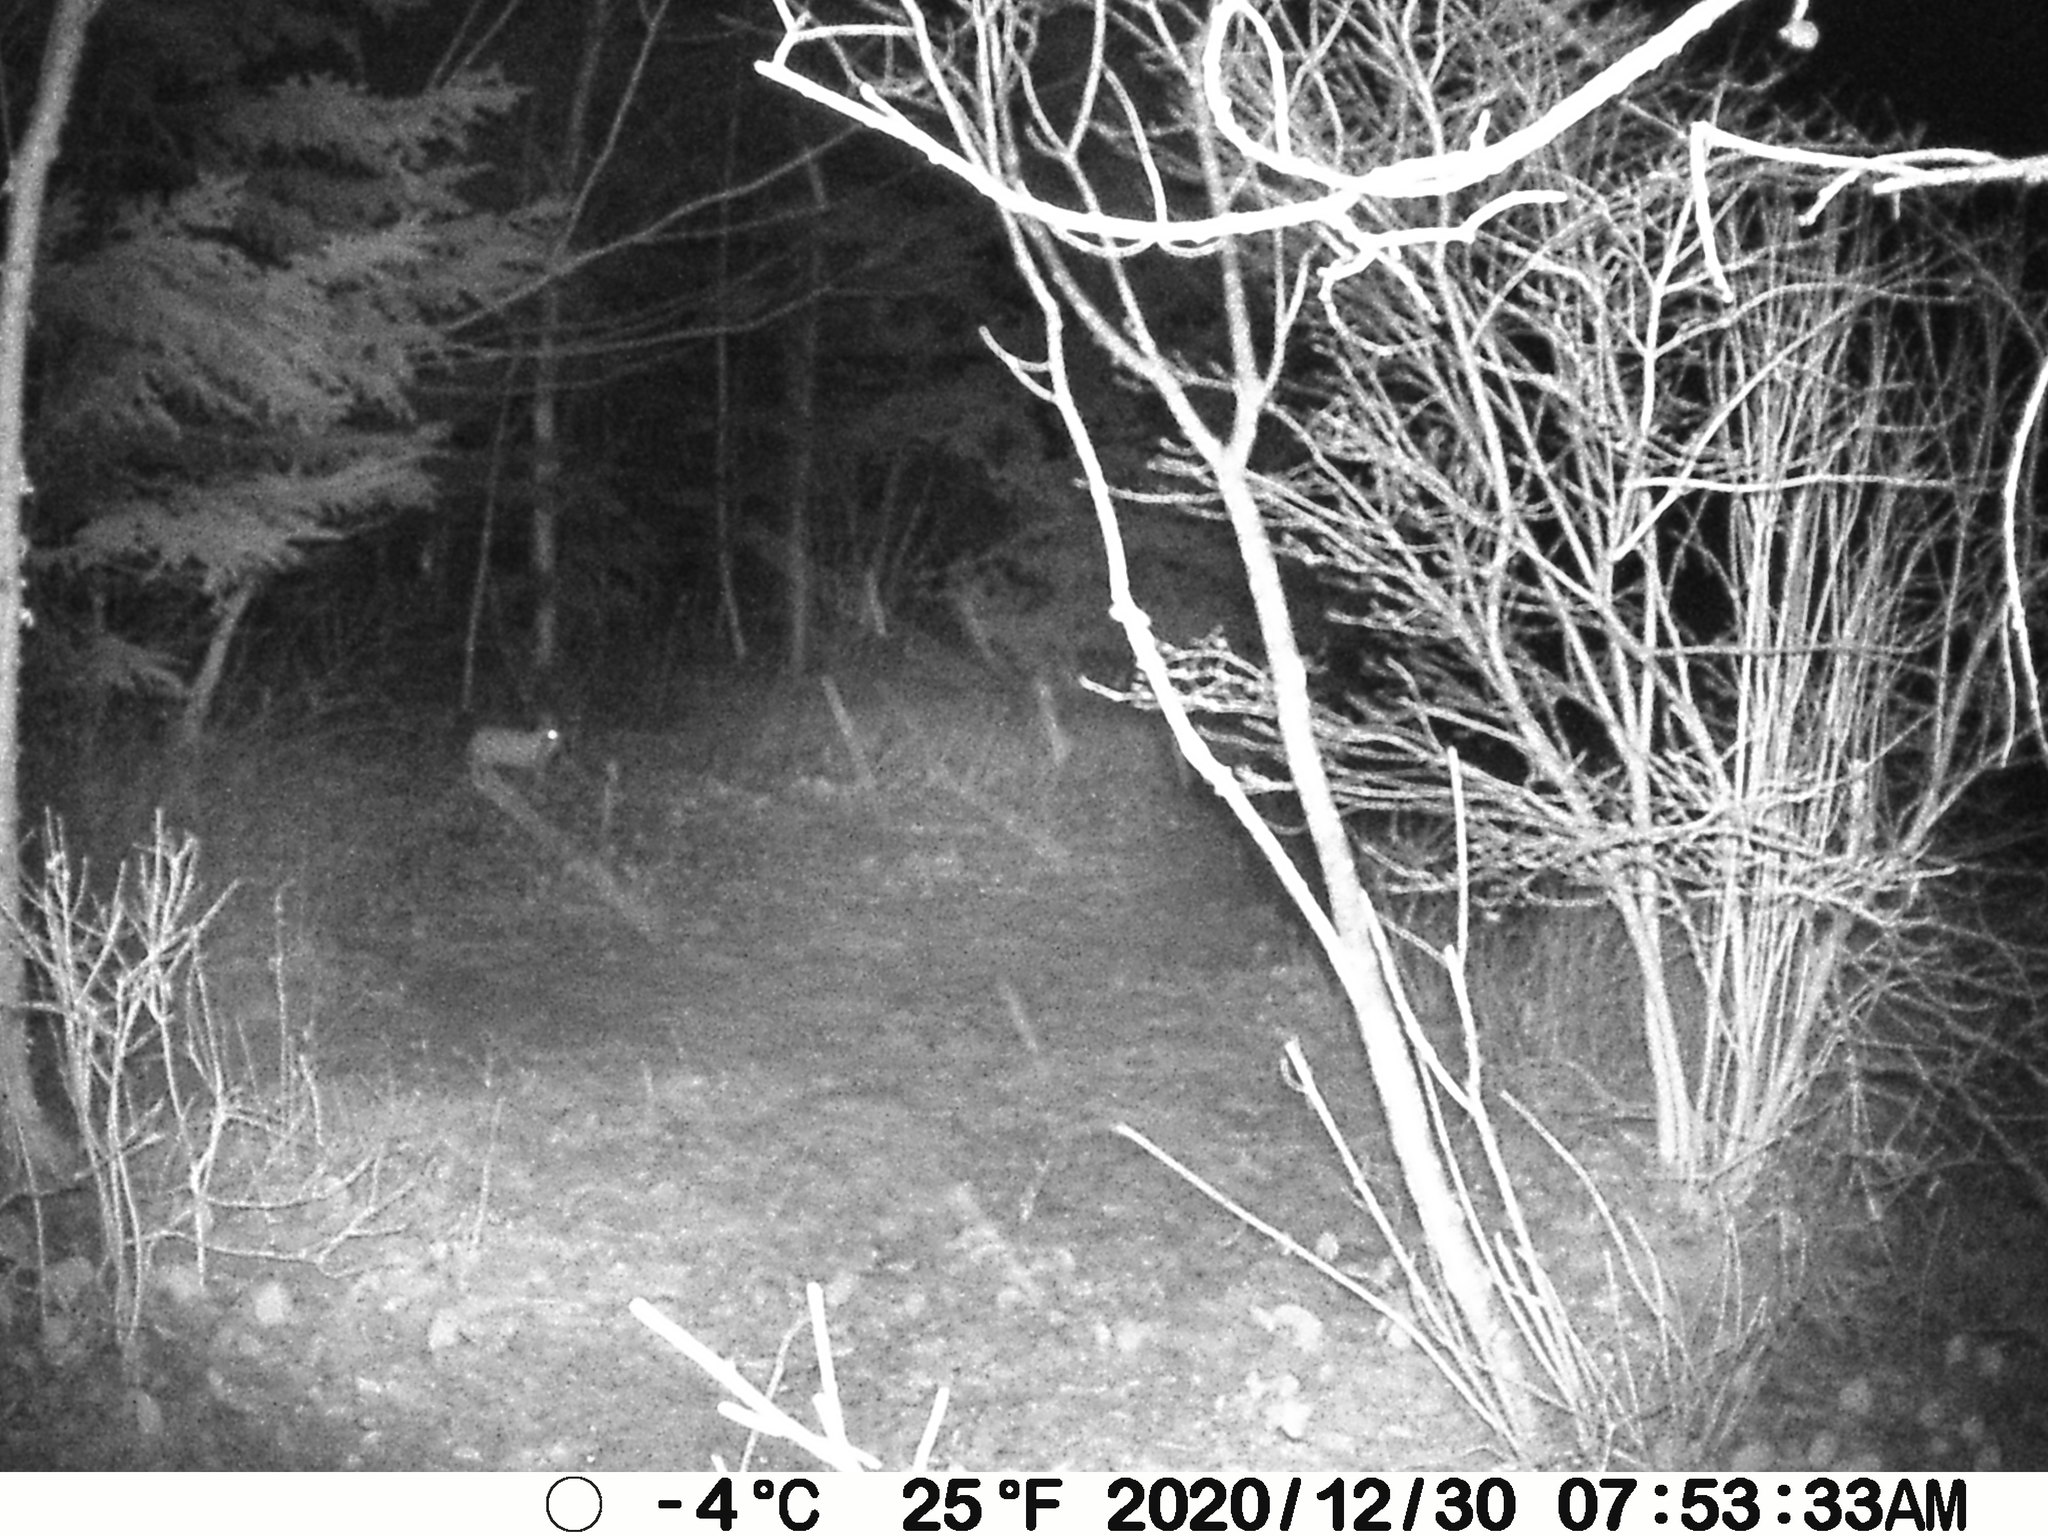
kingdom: Animalia
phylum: Chordata
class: Mammalia
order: Lagomorpha
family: Leporidae
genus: Lepus
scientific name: Lepus americanus
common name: Snowshoe hare
